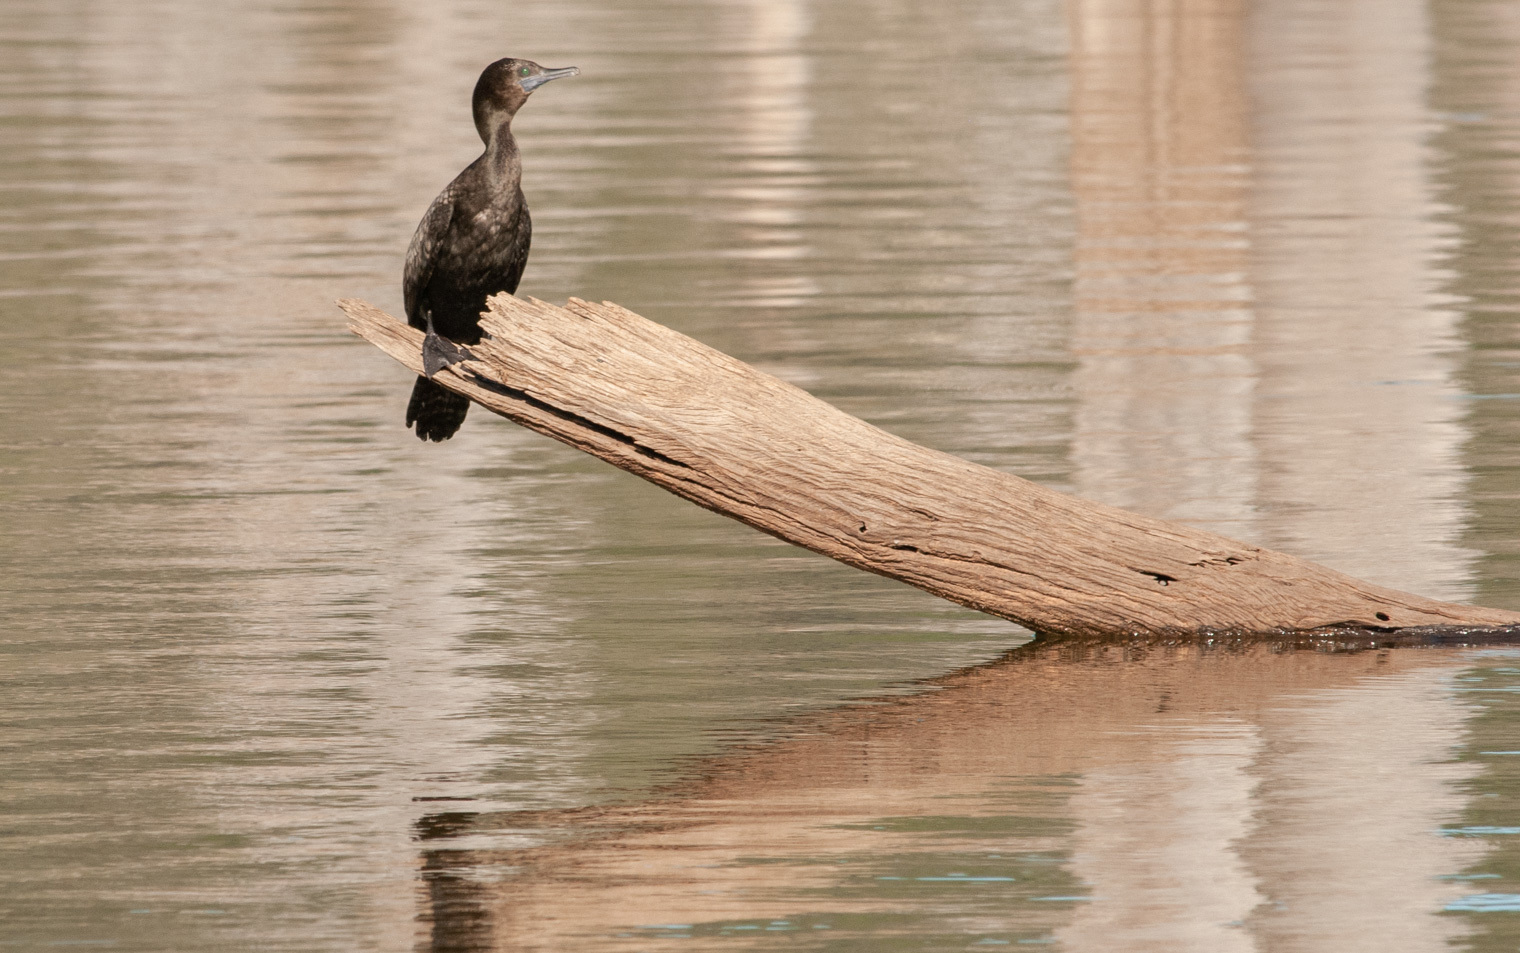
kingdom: Animalia
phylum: Chordata
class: Aves
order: Suliformes
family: Phalacrocoracidae
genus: Phalacrocorax
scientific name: Phalacrocorax sulcirostris
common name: Little black cormorant
